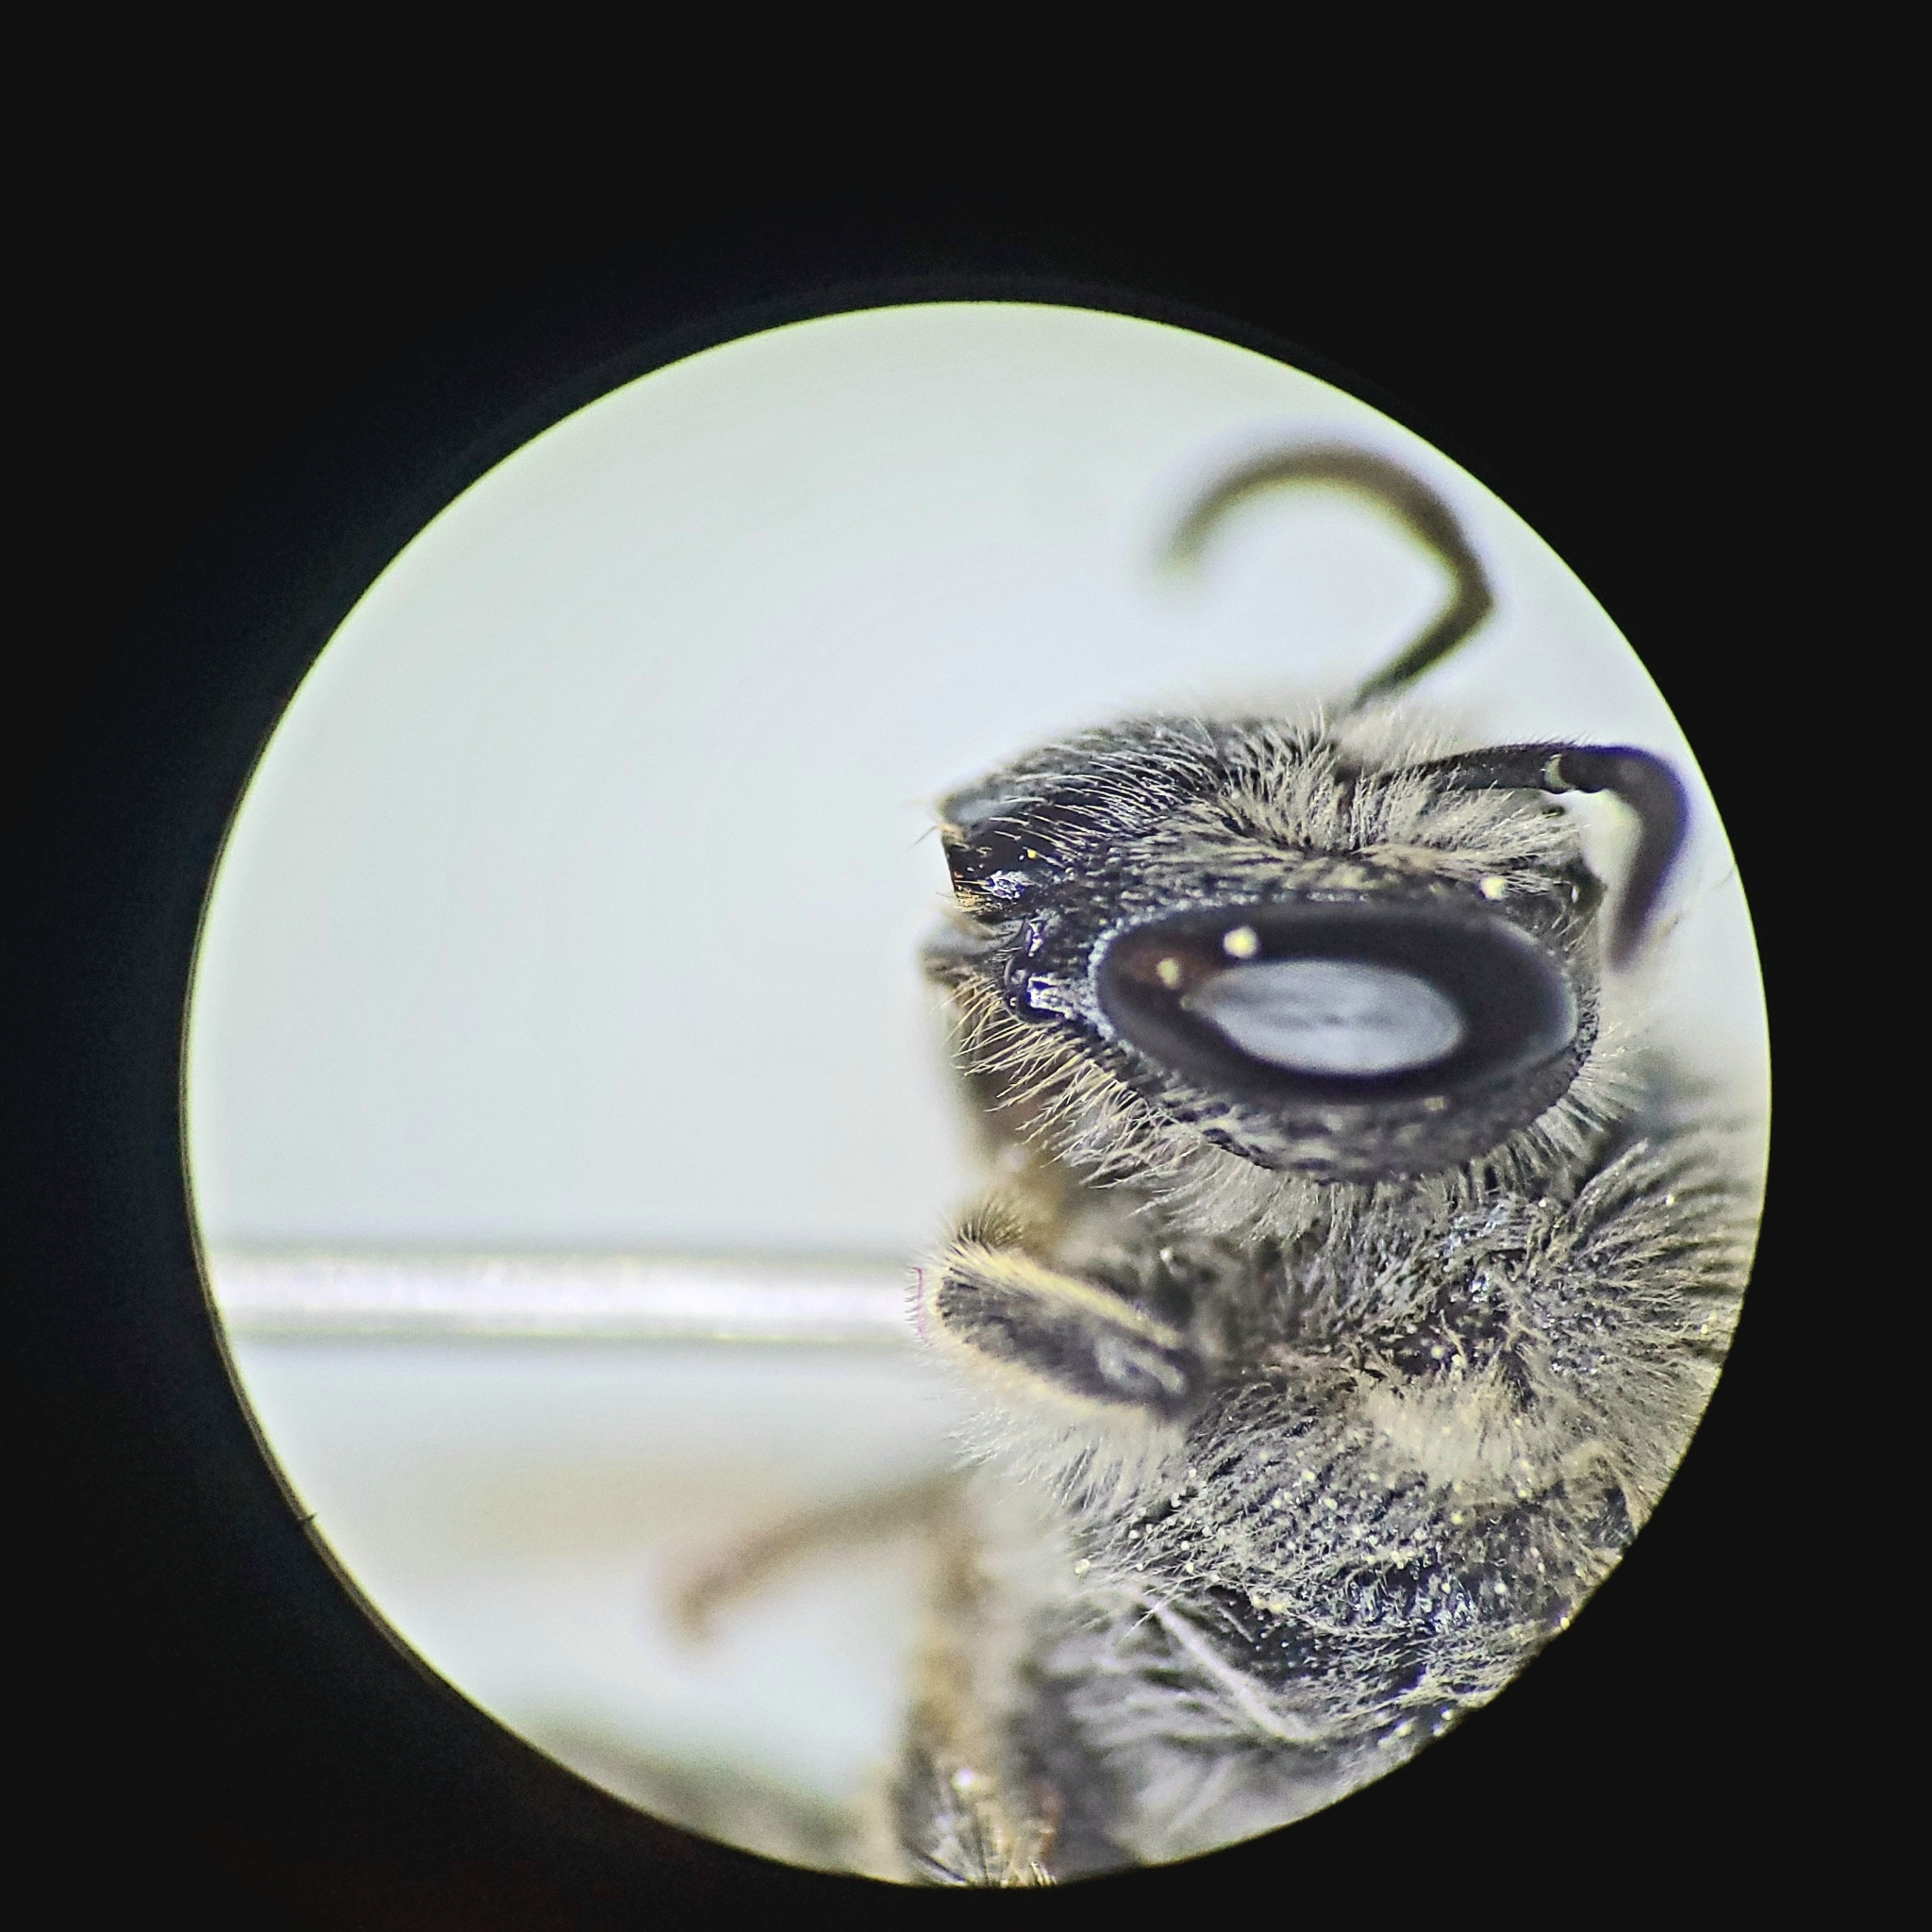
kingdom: Animalia
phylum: Arthropoda
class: Insecta
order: Hymenoptera
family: Colletidae
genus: Colletes
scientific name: Colletes productus
